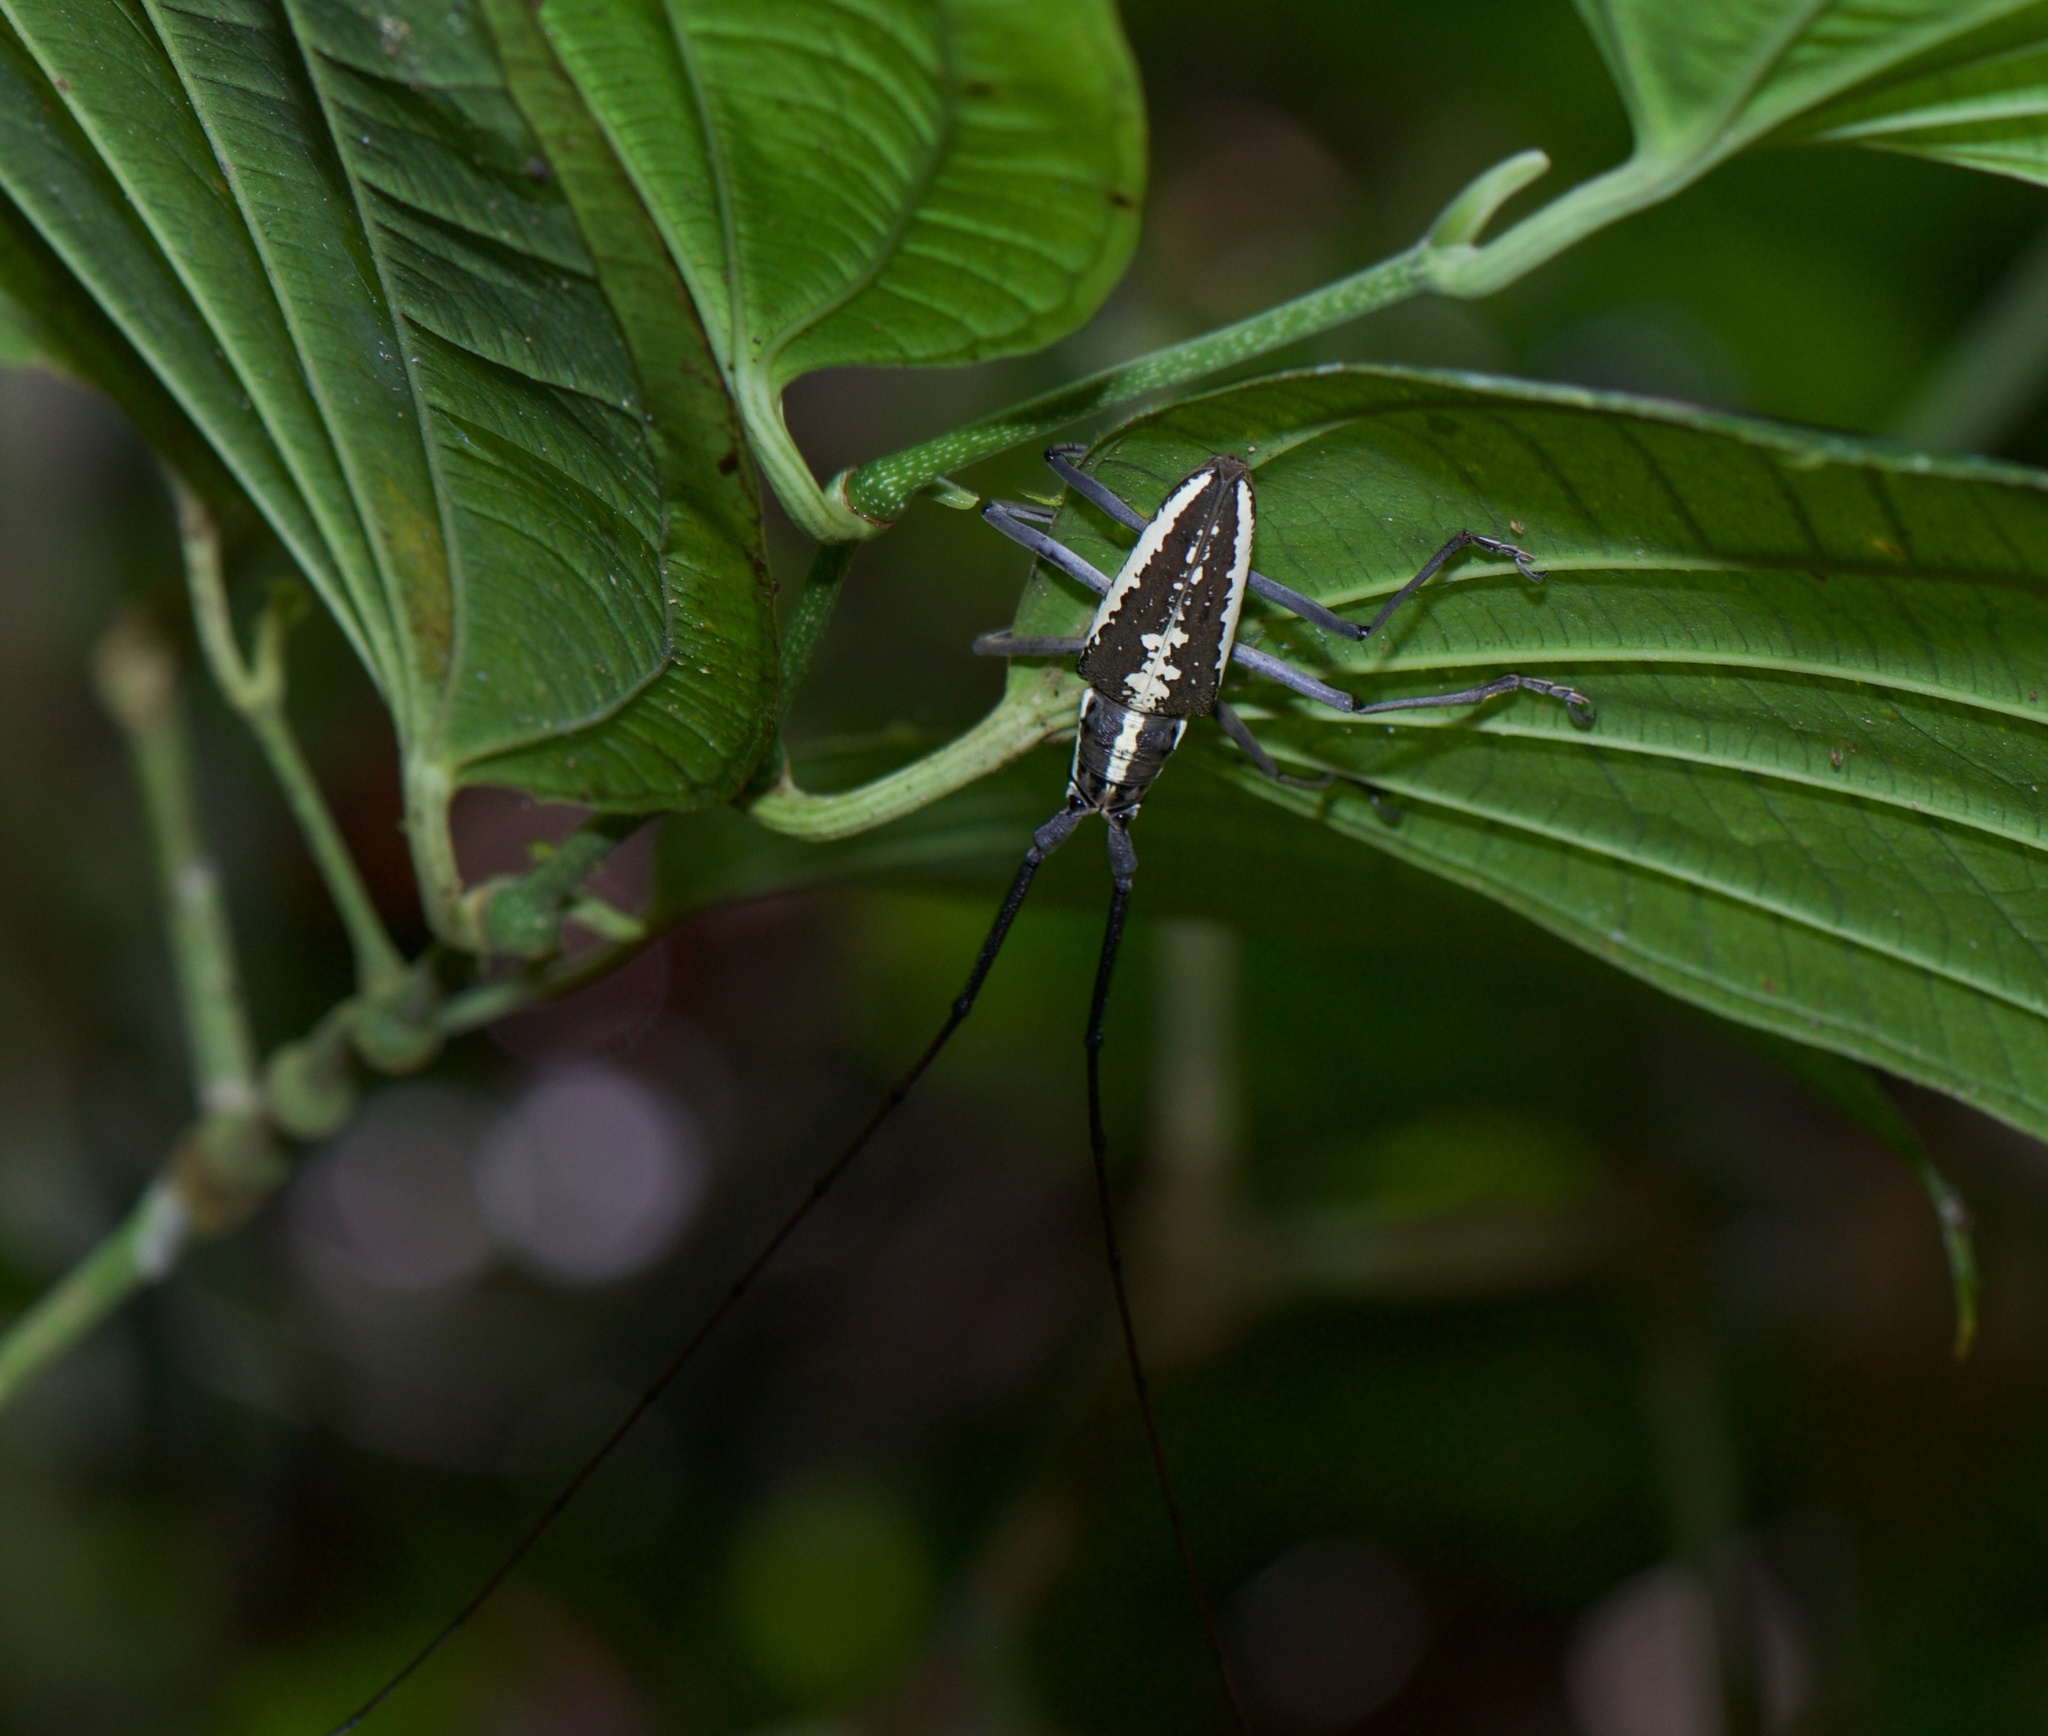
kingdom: Animalia
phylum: Arthropoda
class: Insecta
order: Coleoptera
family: Cerambycidae
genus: Neoptychodes
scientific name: Neoptychodes hondurae
